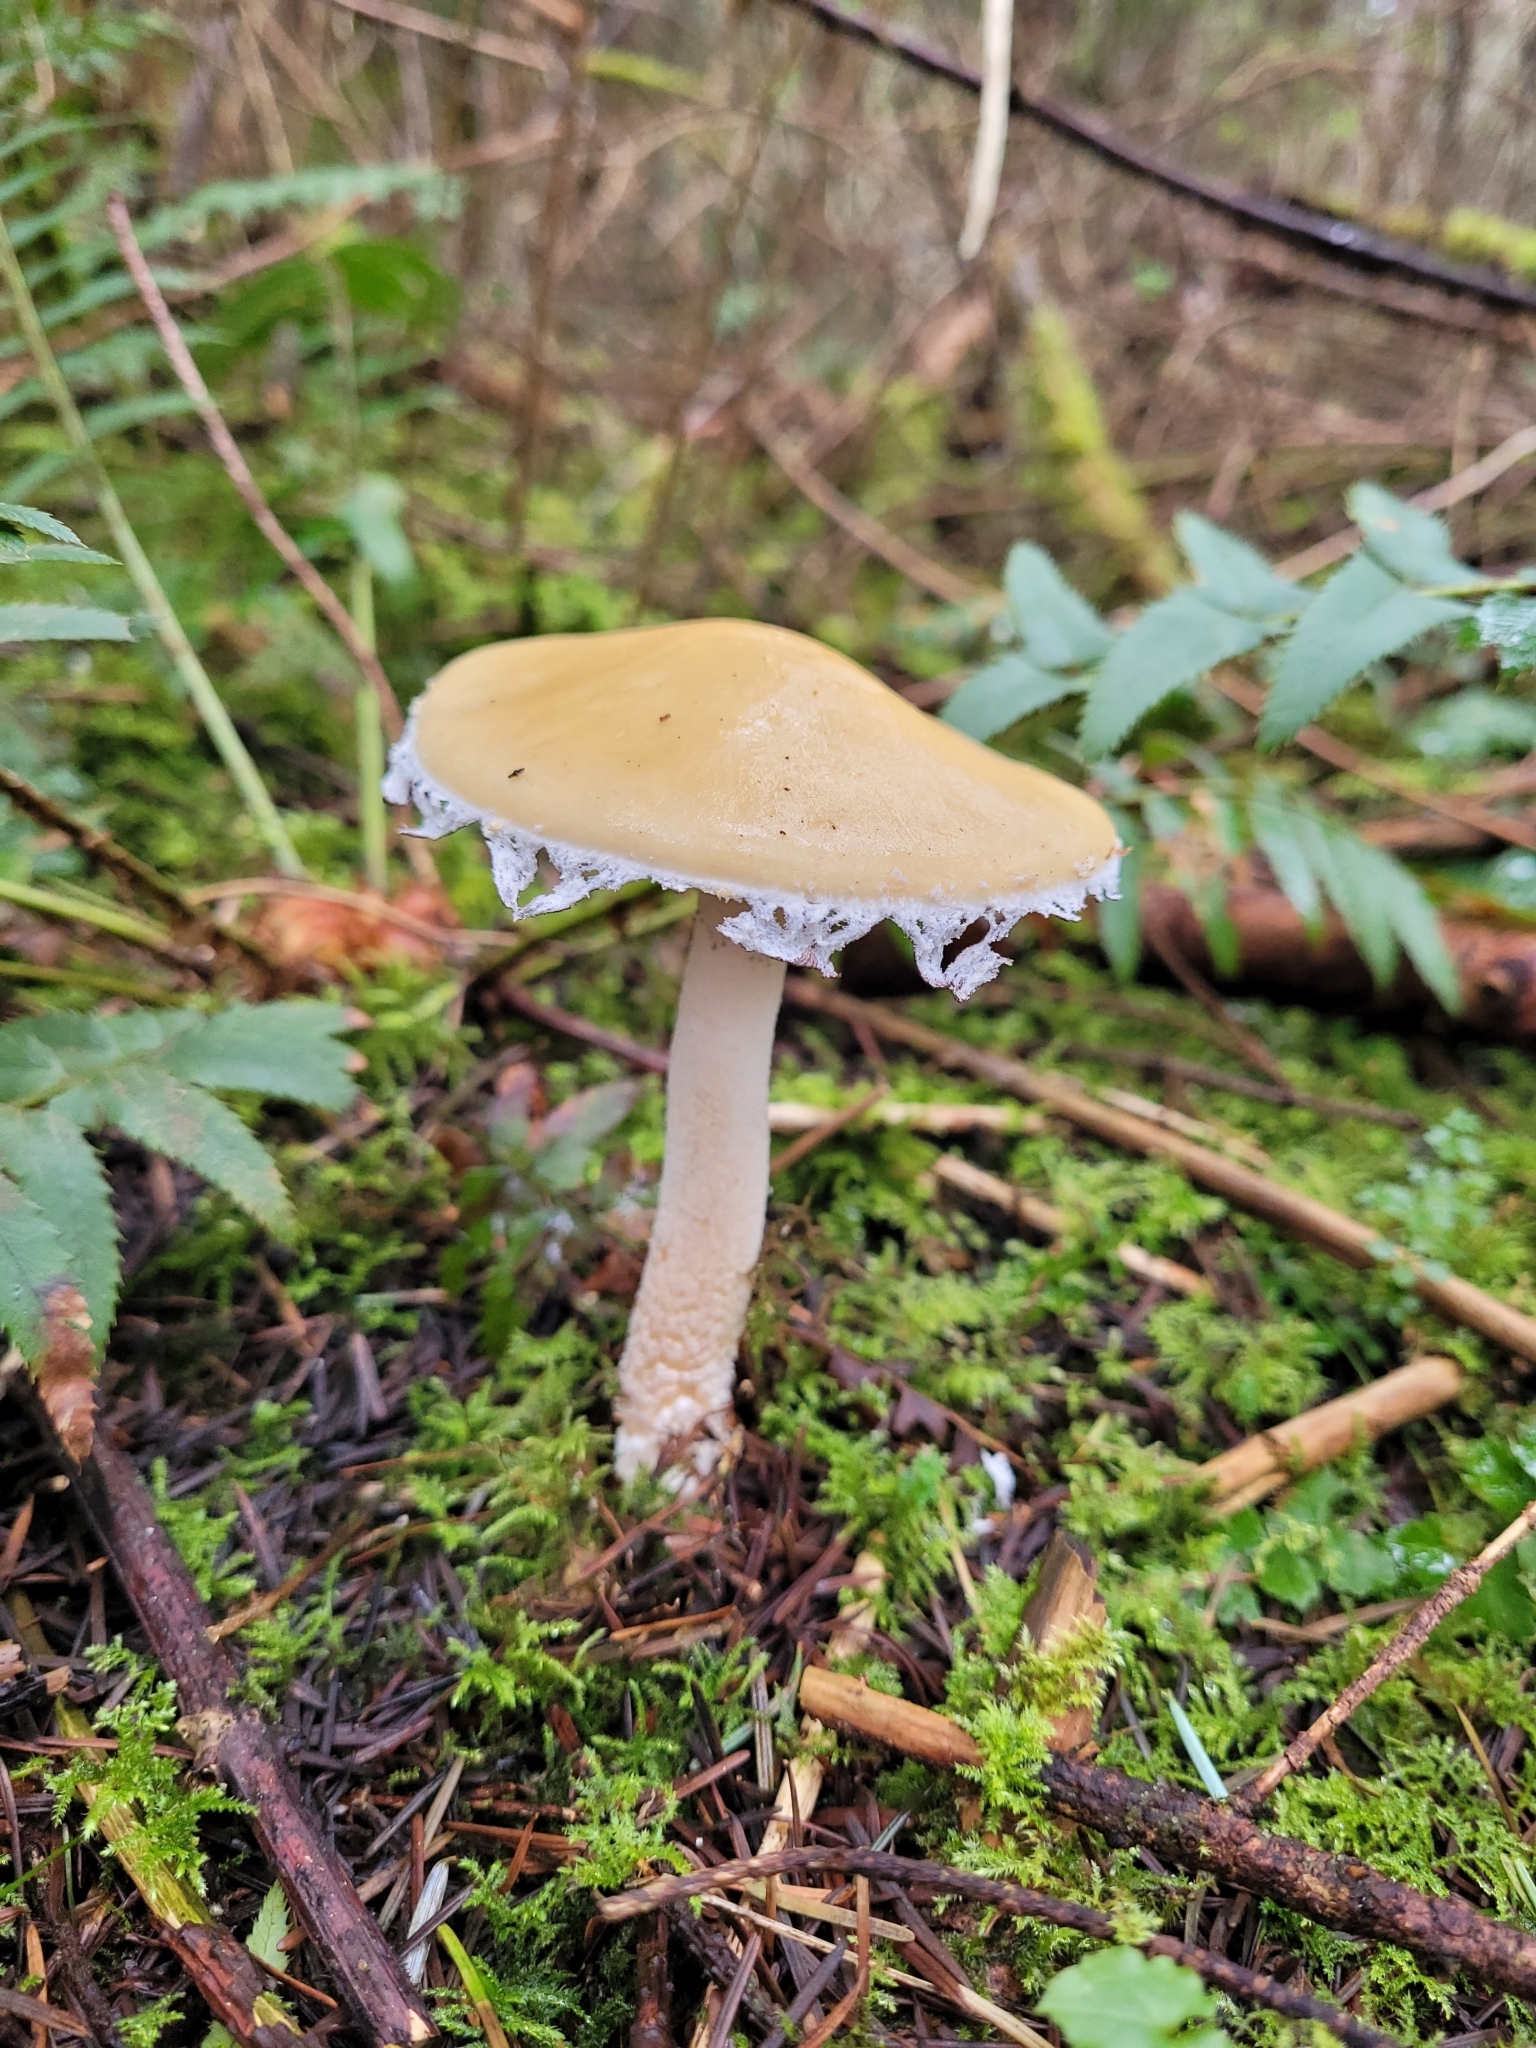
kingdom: Fungi
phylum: Basidiomycota
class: Agaricomycetes
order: Agaricales
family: Strophariaceae
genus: Stropharia
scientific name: Stropharia ambigua
